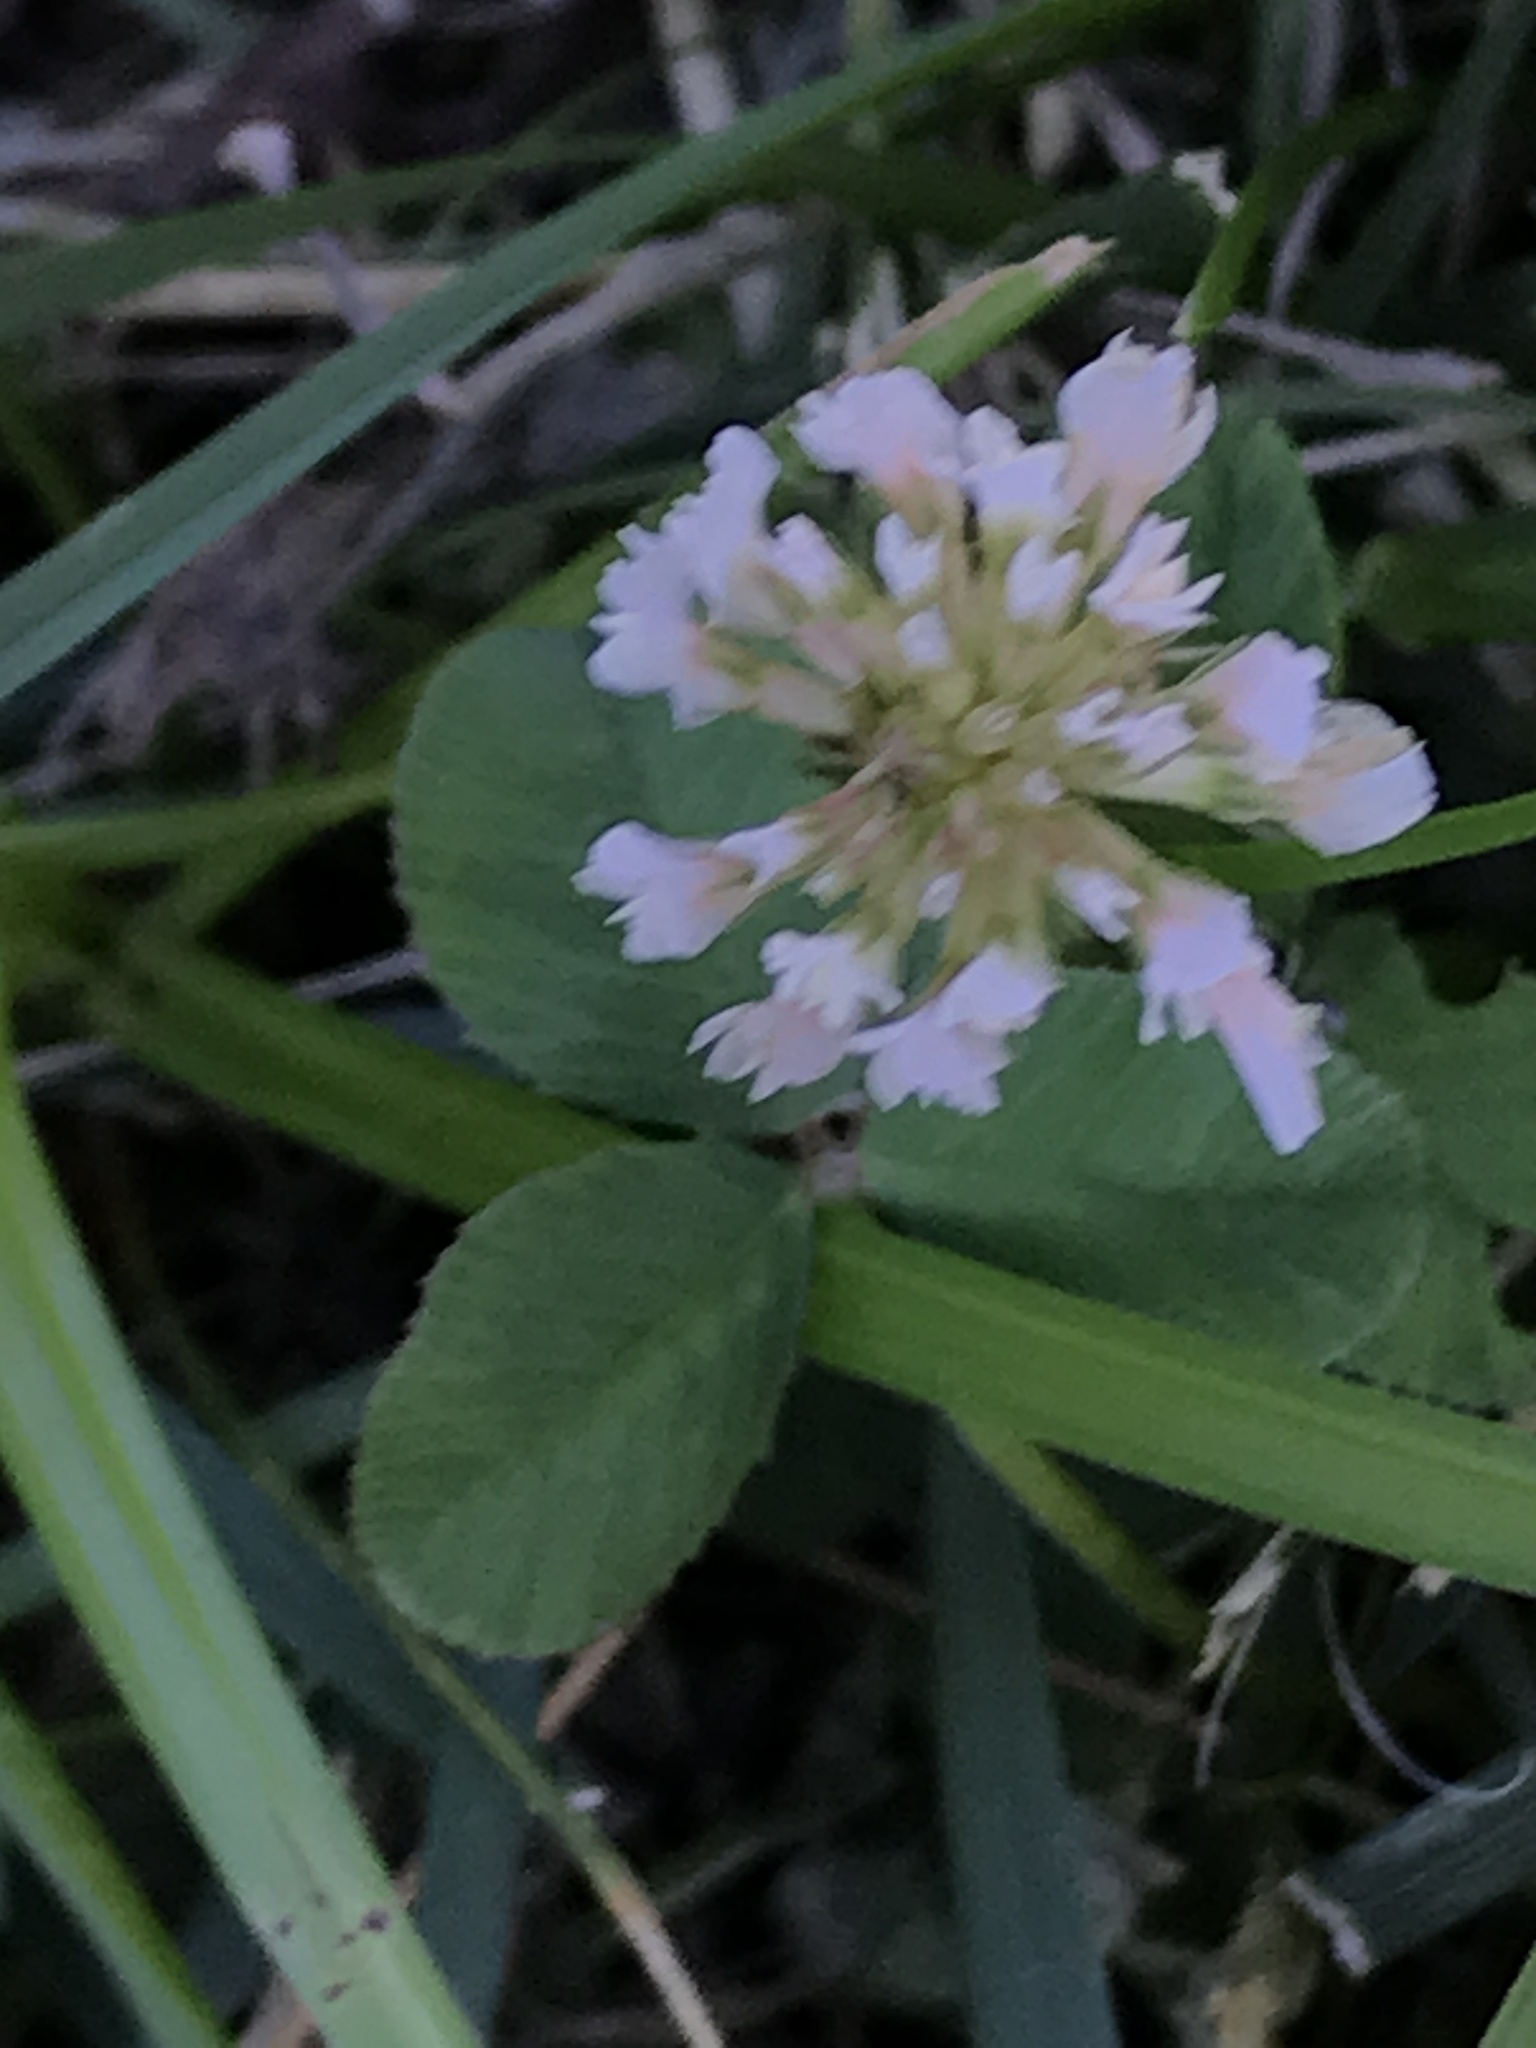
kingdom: Plantae
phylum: Tracheophyta
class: Magnoliopsida
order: Fabales
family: Fabaceae
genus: Trifolium
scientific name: Trifolium repens
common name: White clover
